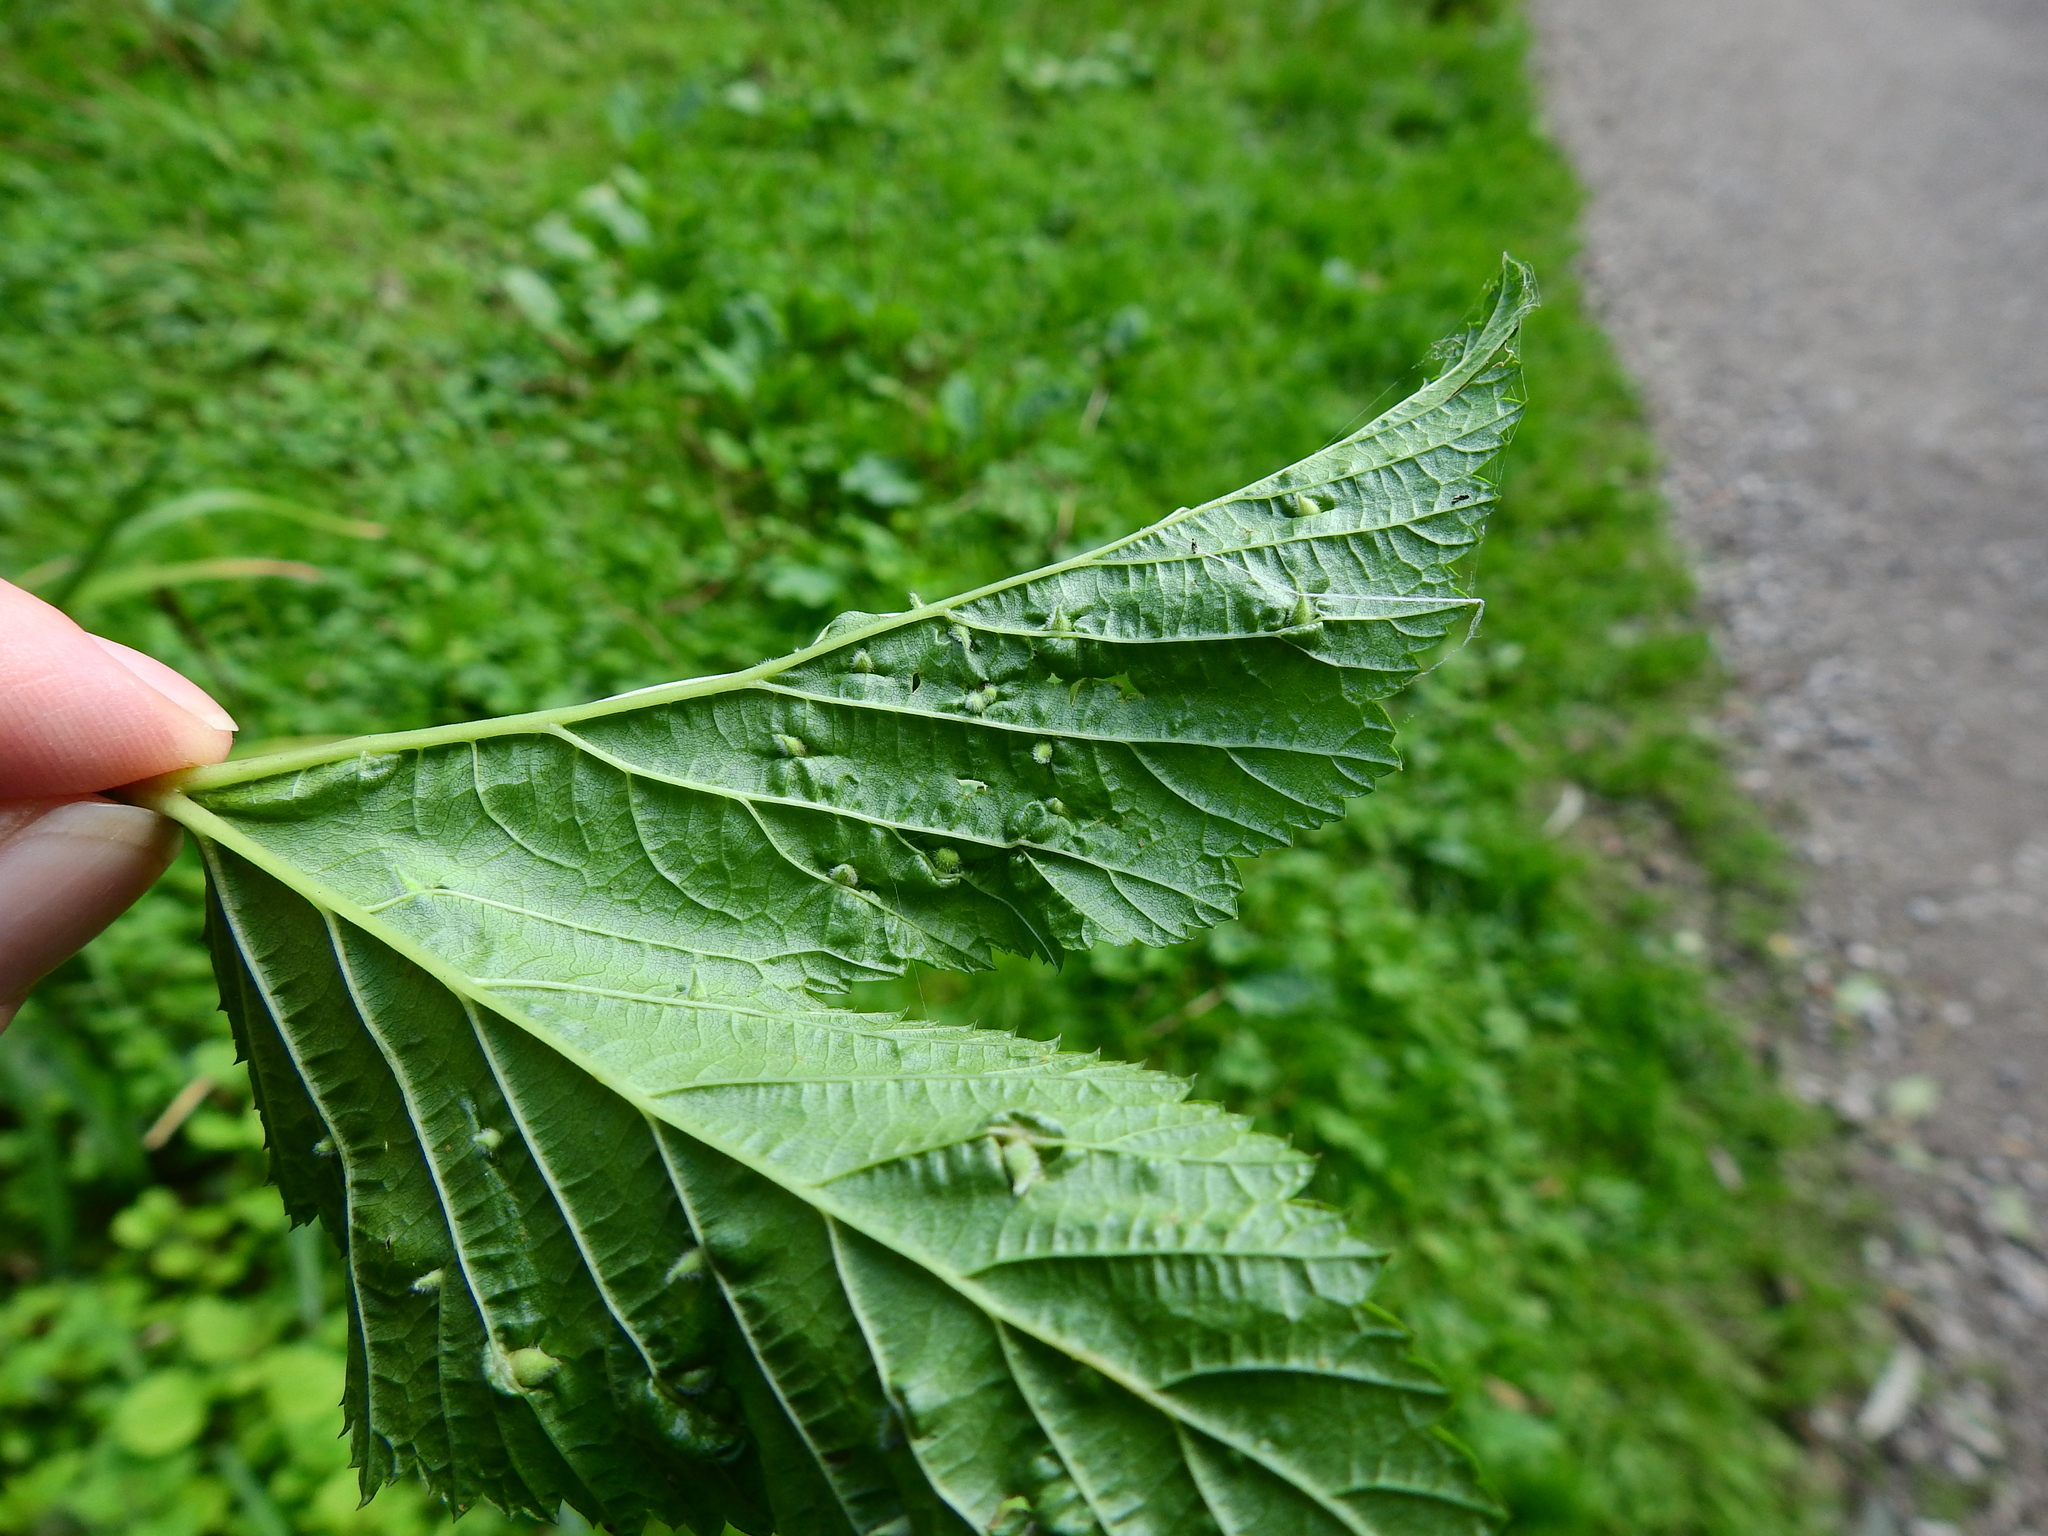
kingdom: Animalia
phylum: Arthropoda
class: Insecta
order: Diptera
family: Cecidomyiidae
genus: Dasineura
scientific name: Dasineura ulmaria
